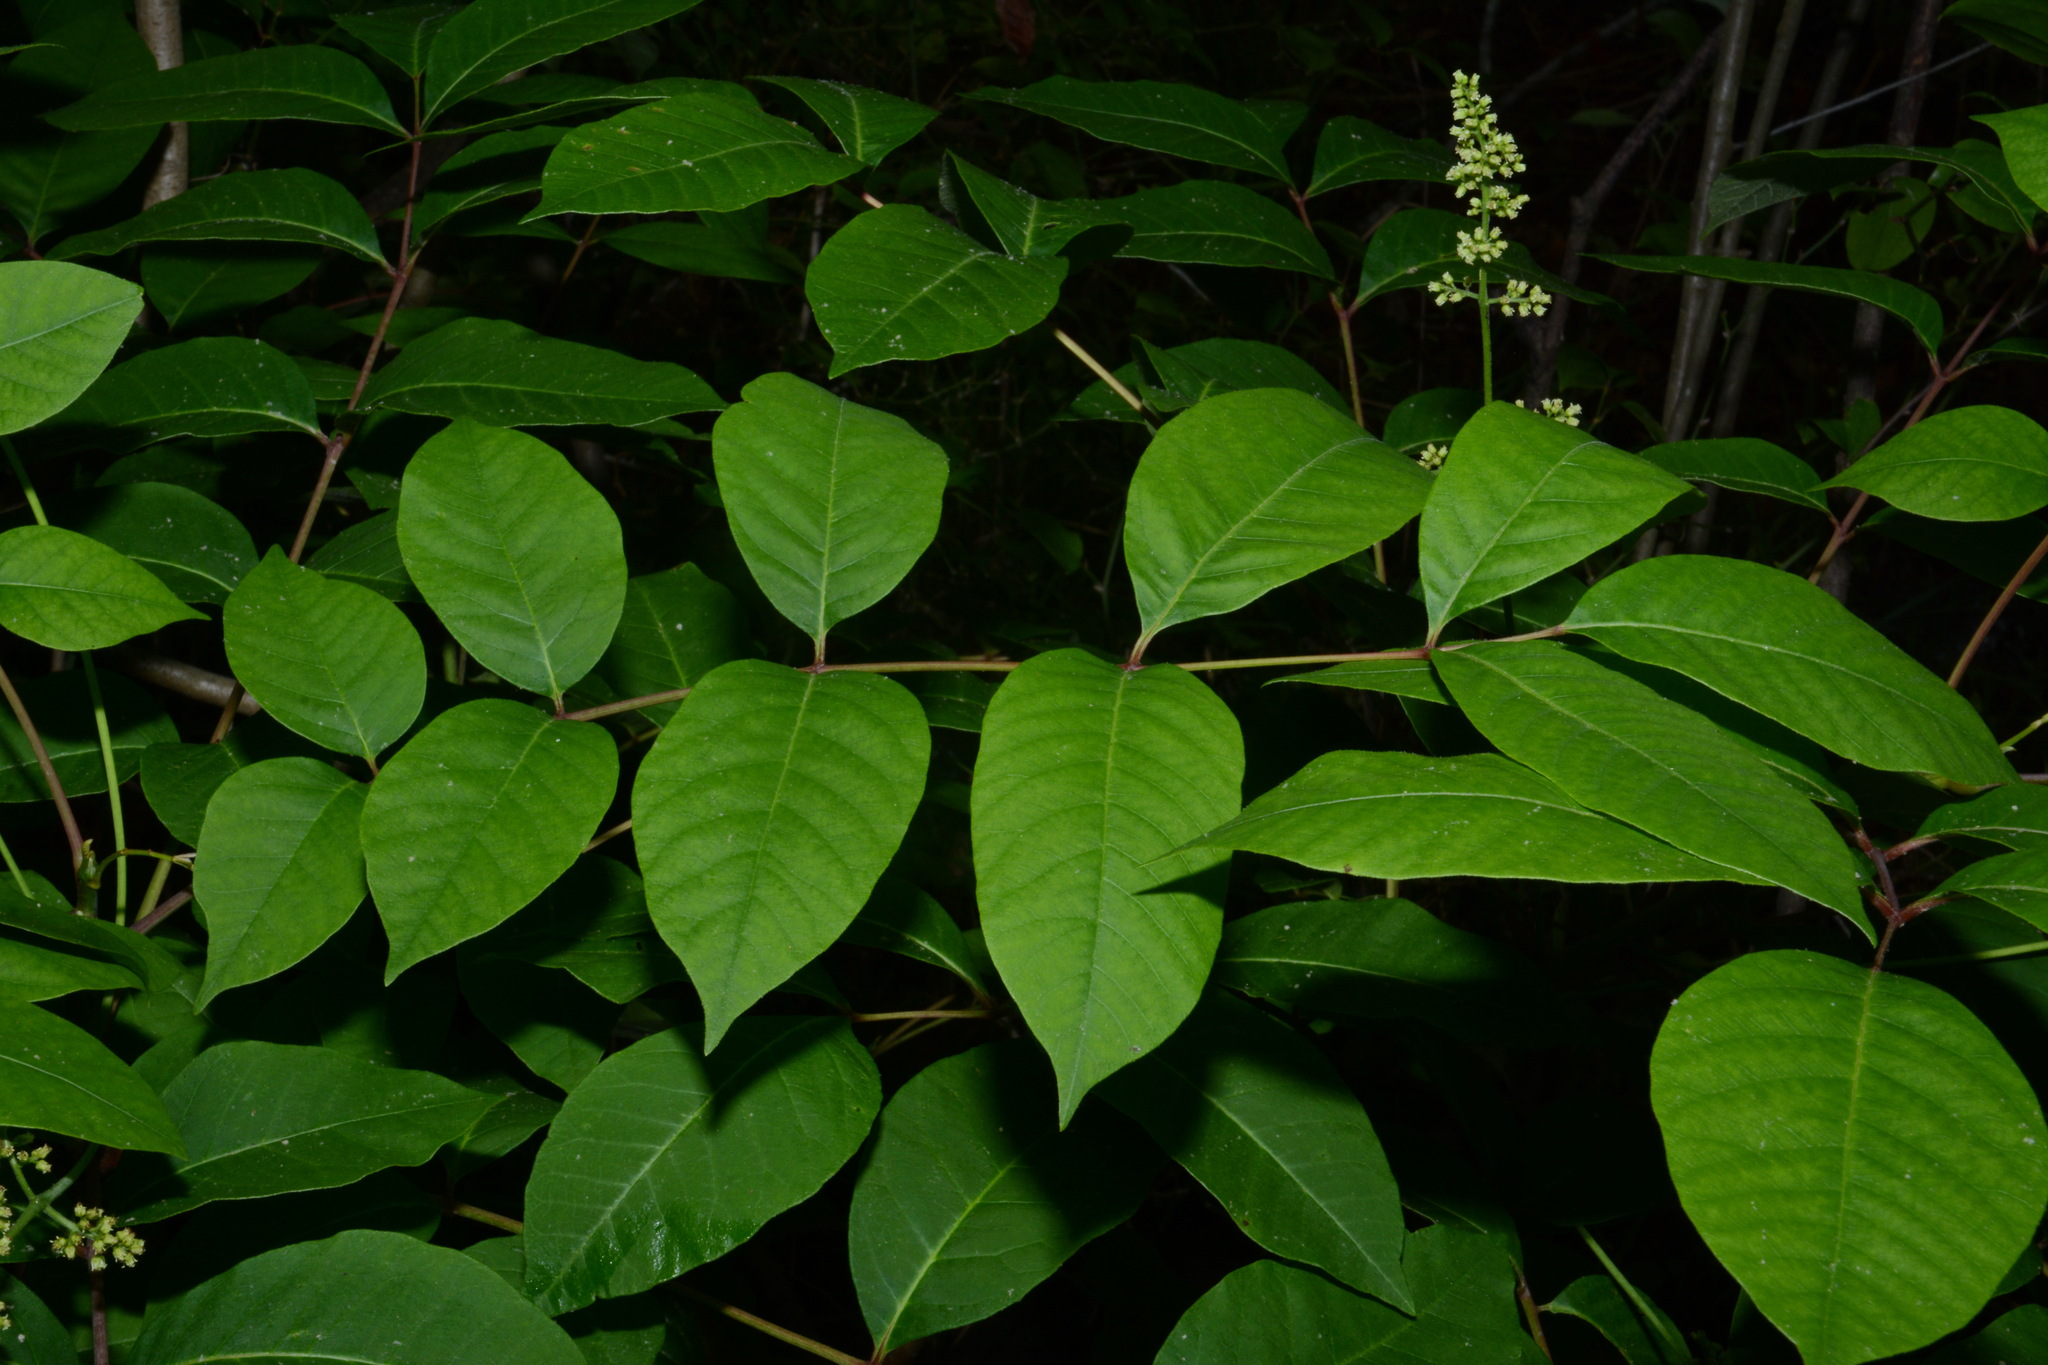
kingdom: Plantae
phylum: Tracheophyta
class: Magnoliopsida
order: Sapindales
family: Anacardiaceae
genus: Toxicodendron
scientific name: Toxicodendron vernix
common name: Poison sumac
